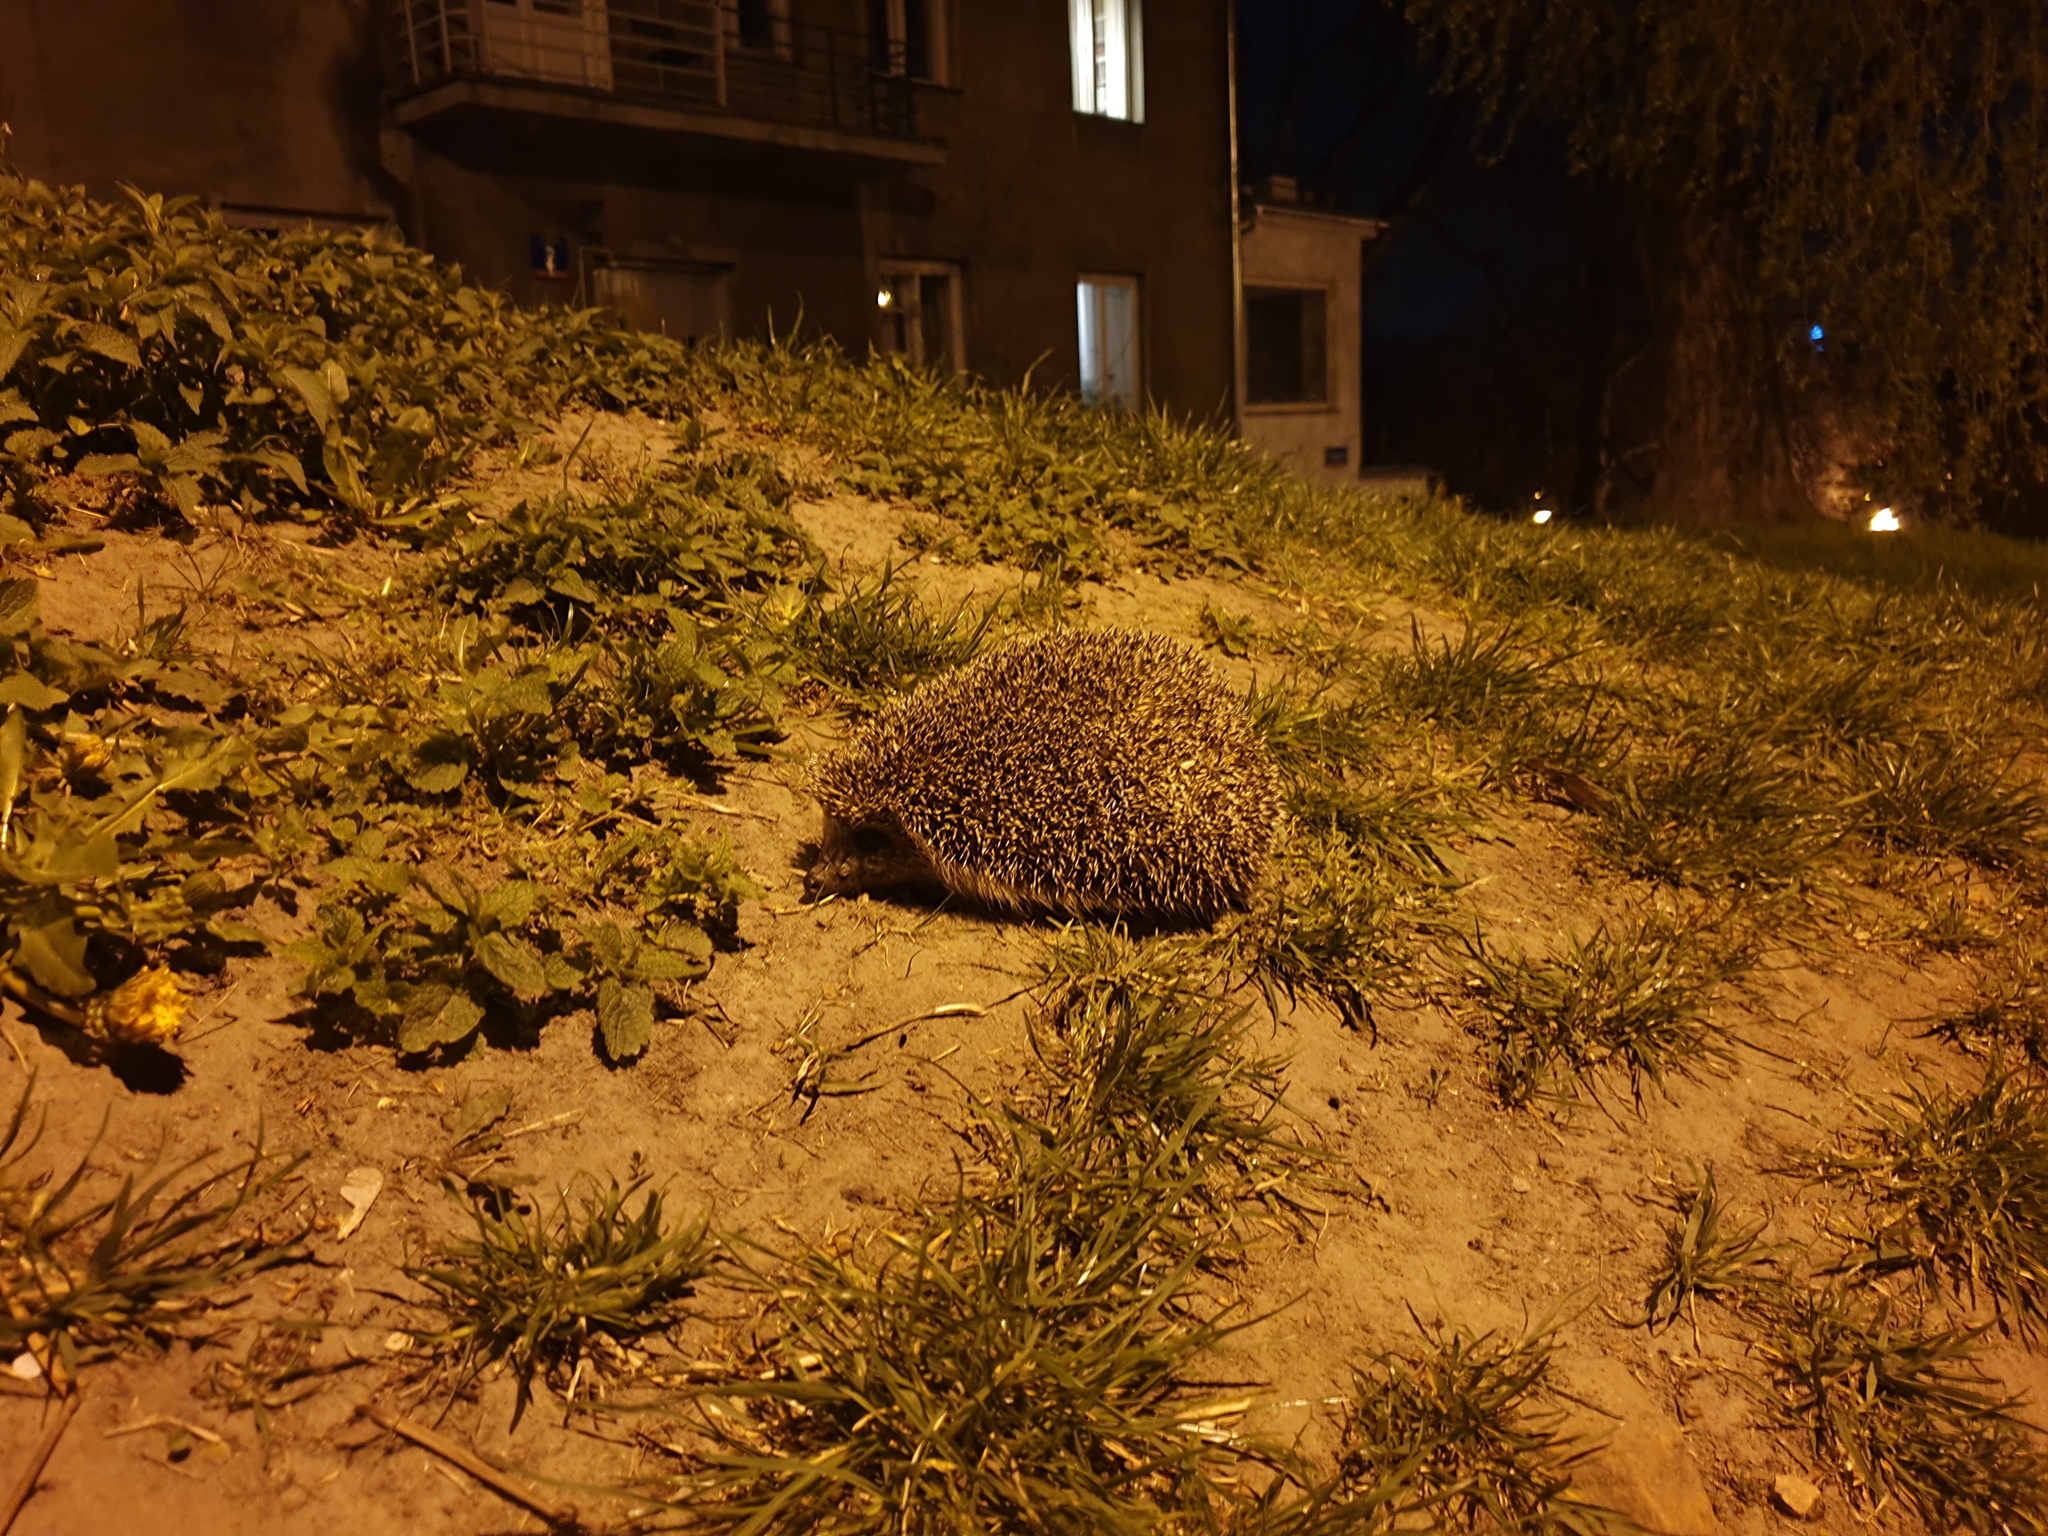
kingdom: Animalia
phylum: Chordata
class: Mammalia
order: Erinaceomorpha
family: Erinaceidae
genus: Erinaceus
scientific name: Erinaceus roumanicus
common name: Northern white-breasted hedgehog
